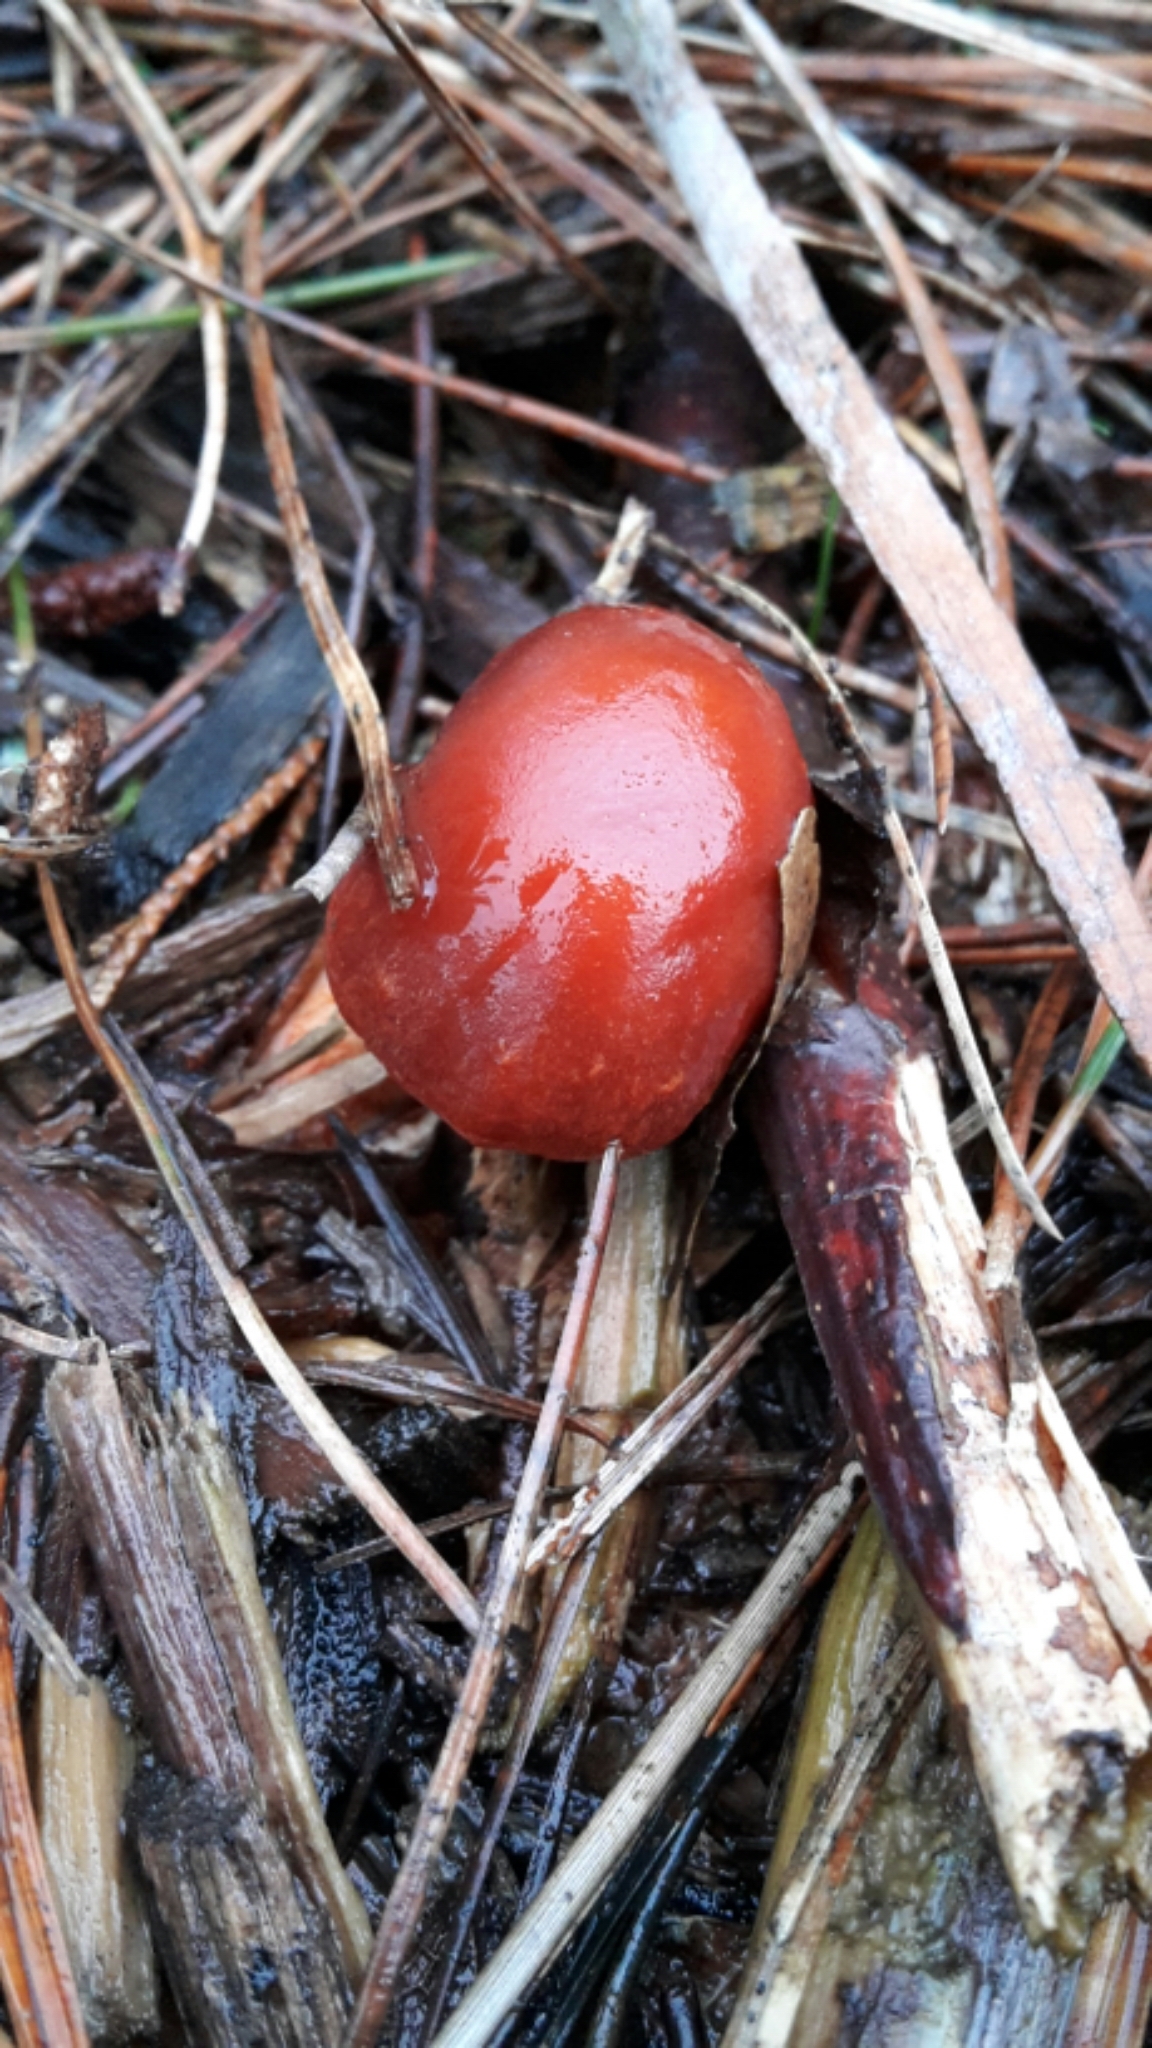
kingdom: Fungi
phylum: Basidiomycota
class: Agaricomycetes
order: Agaricales
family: Strophariaceae
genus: Leratiomyces
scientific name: Leratiomyces ceres
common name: Redlead roundhead
